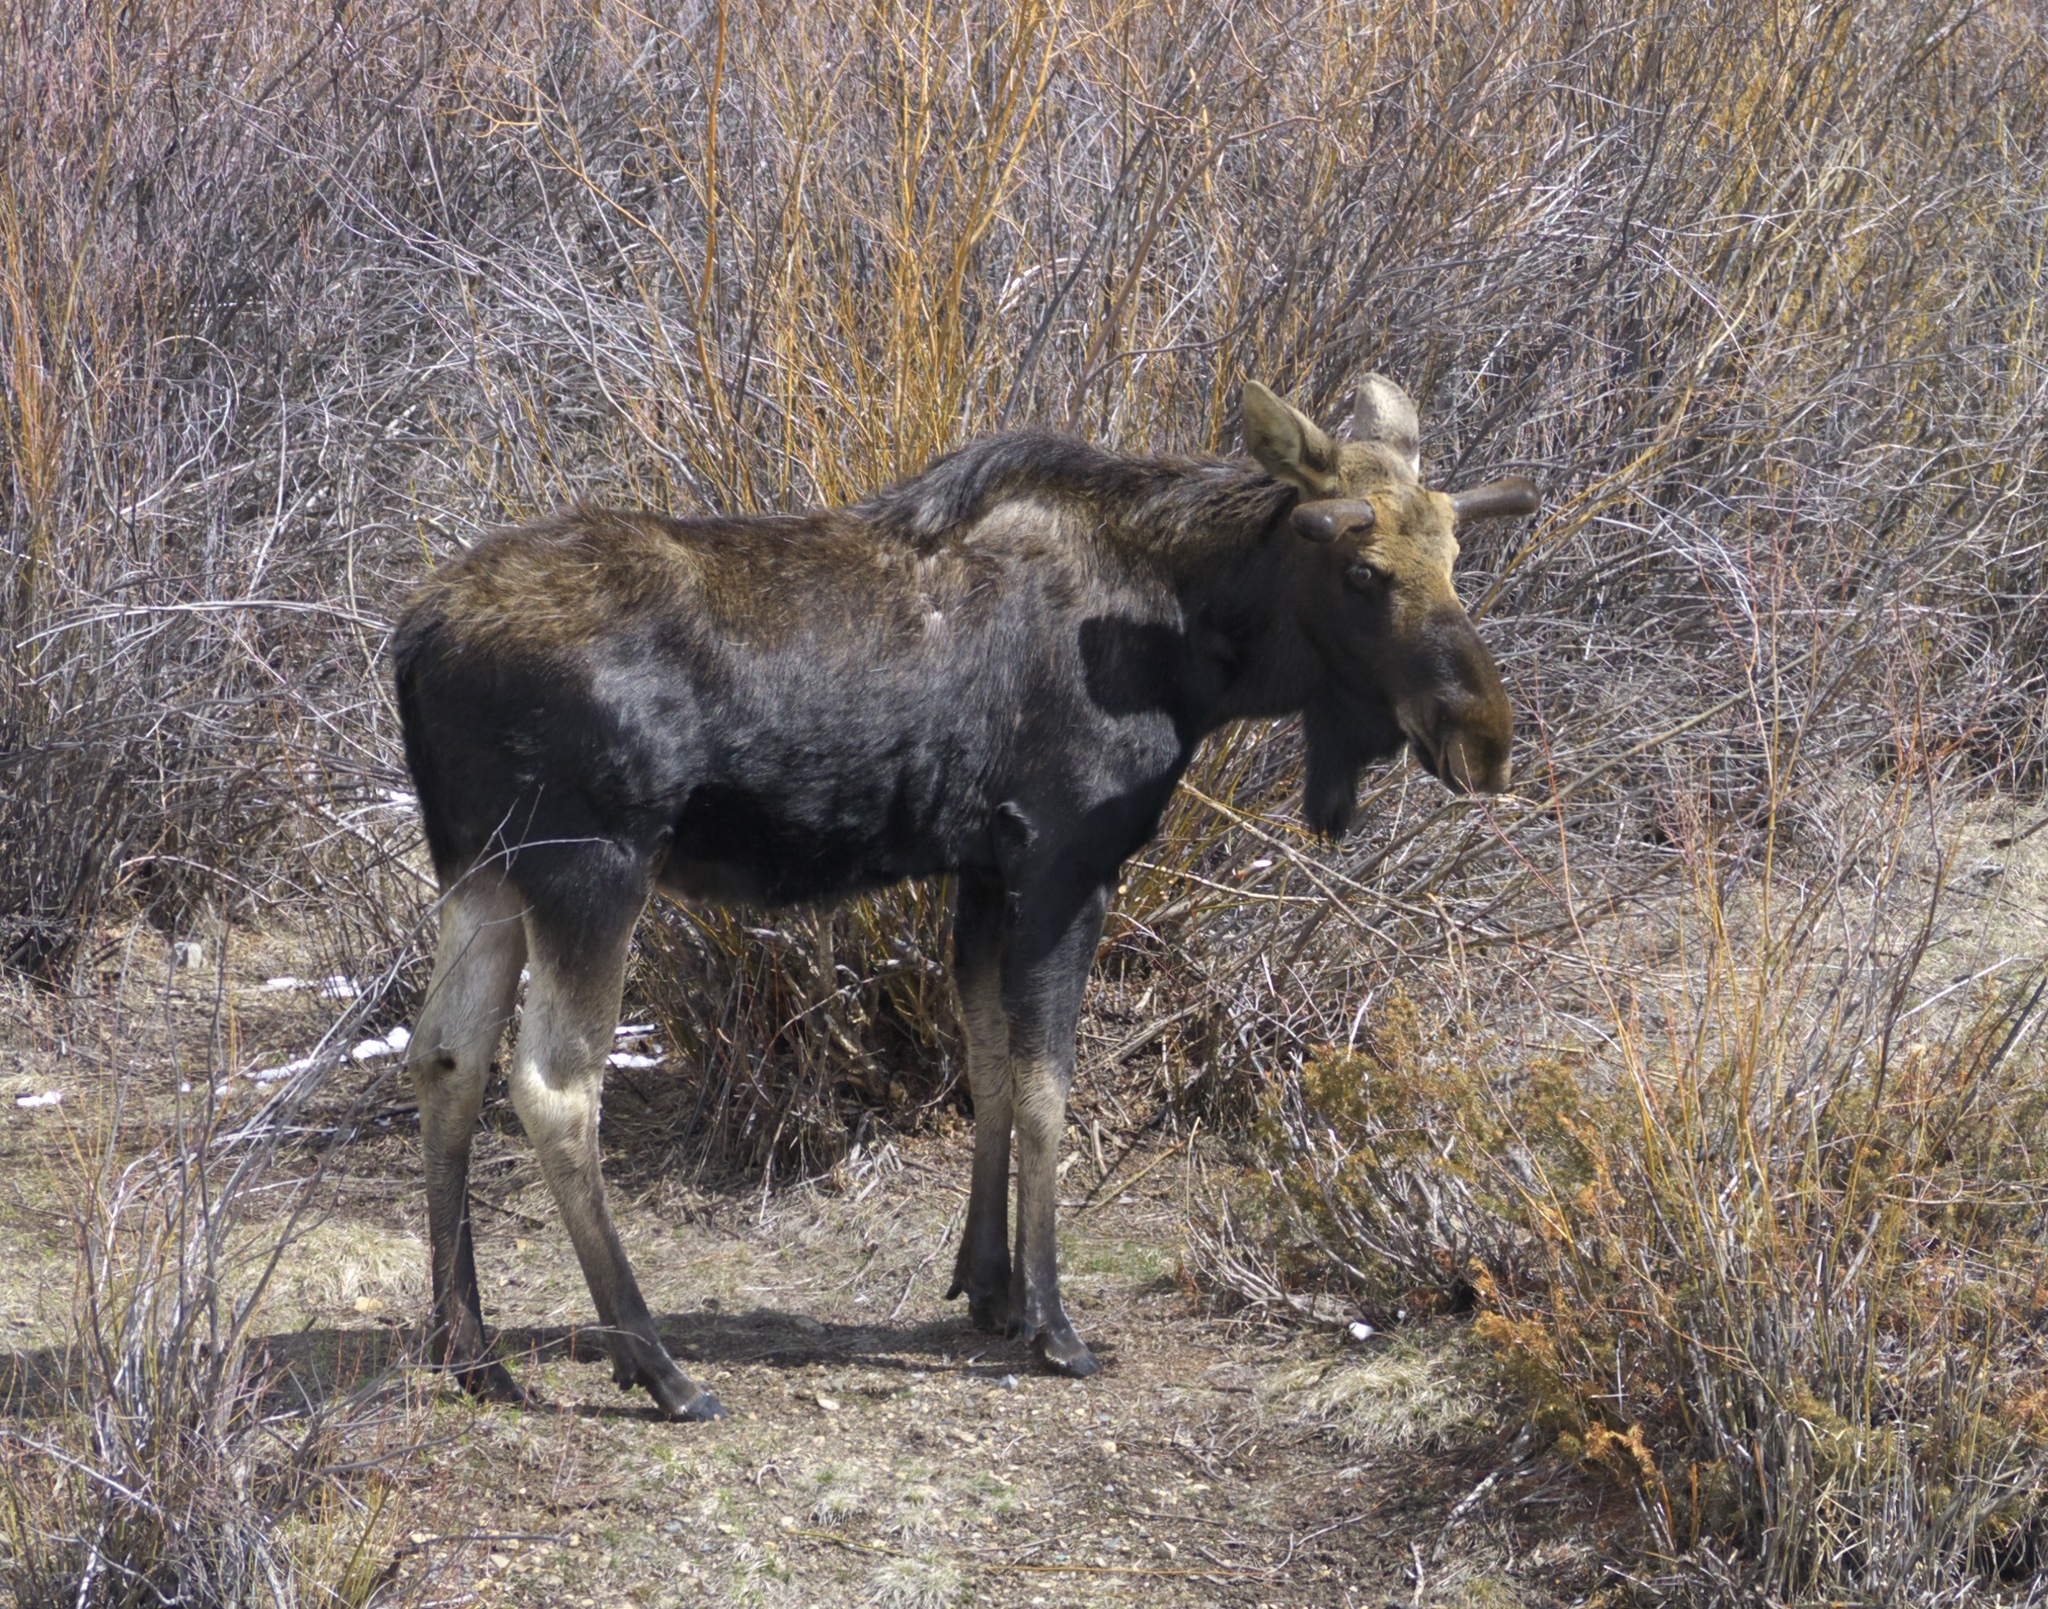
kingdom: Animalia
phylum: Chordata
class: Mammalia
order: Artiodactyla
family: Cervidae
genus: Alces
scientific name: Alces alces
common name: Moose
